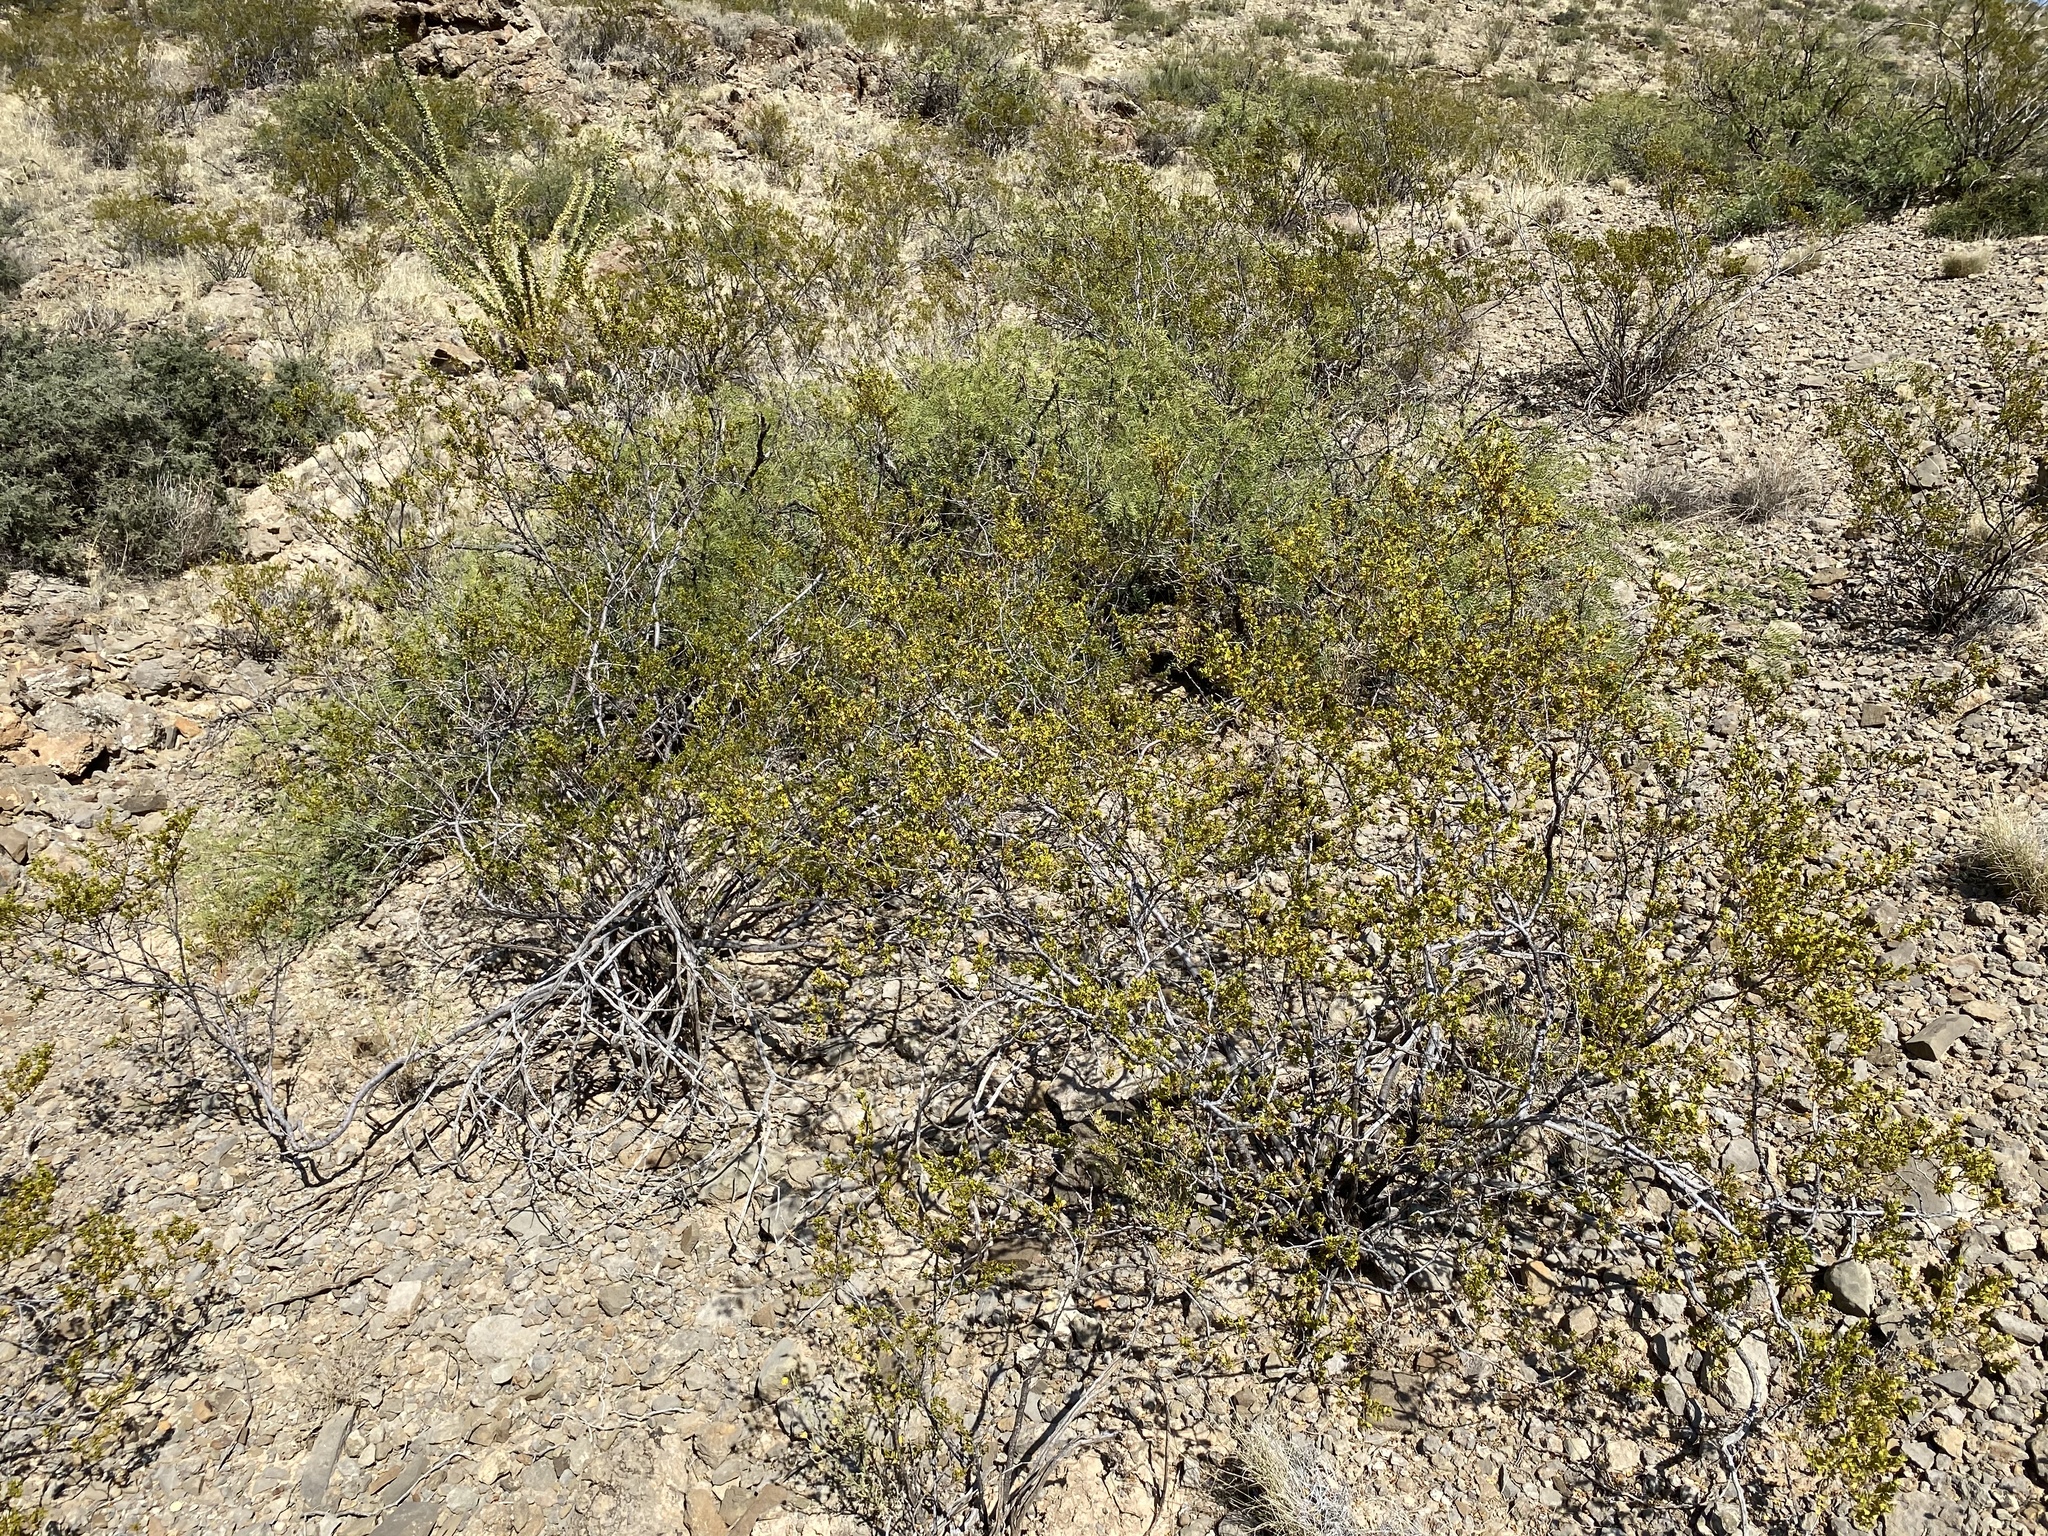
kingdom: Plantae
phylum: Tracheophyta
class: Magnoliopsida
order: Zygophyllales
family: Zygophyllaceae
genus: Larrea
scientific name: Larrea tridentata
